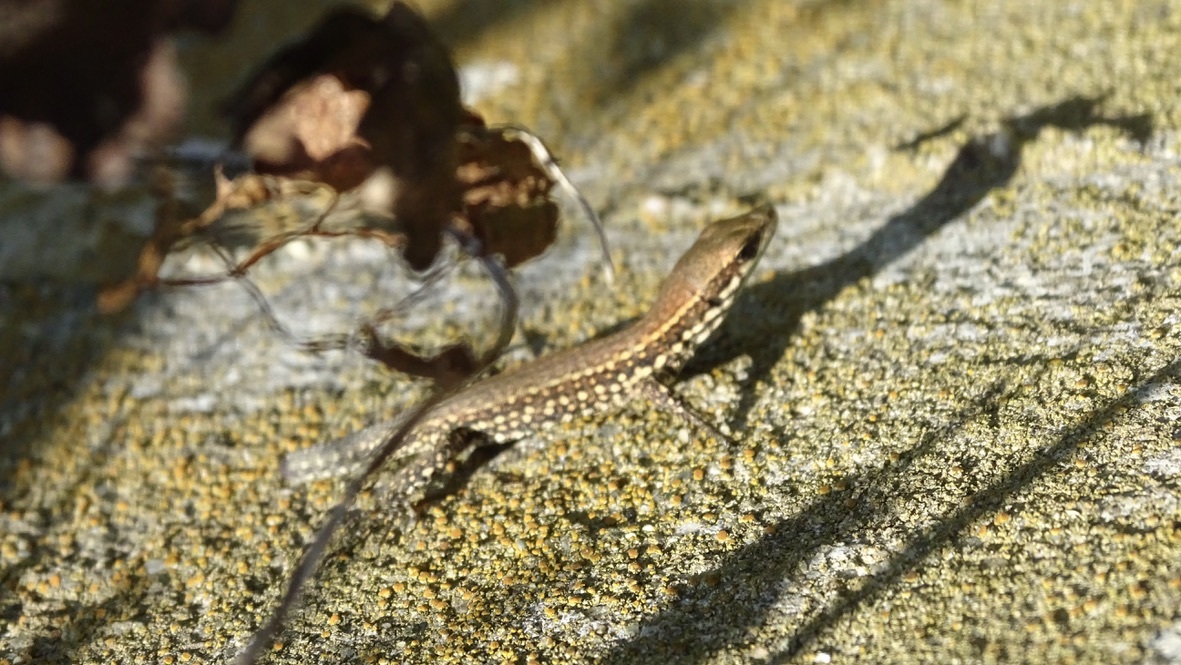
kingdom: Animalia
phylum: Chordata
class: Squamata
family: Lacertidae
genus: Podarcis
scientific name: Podarcis muralis
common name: Common wall lizard
